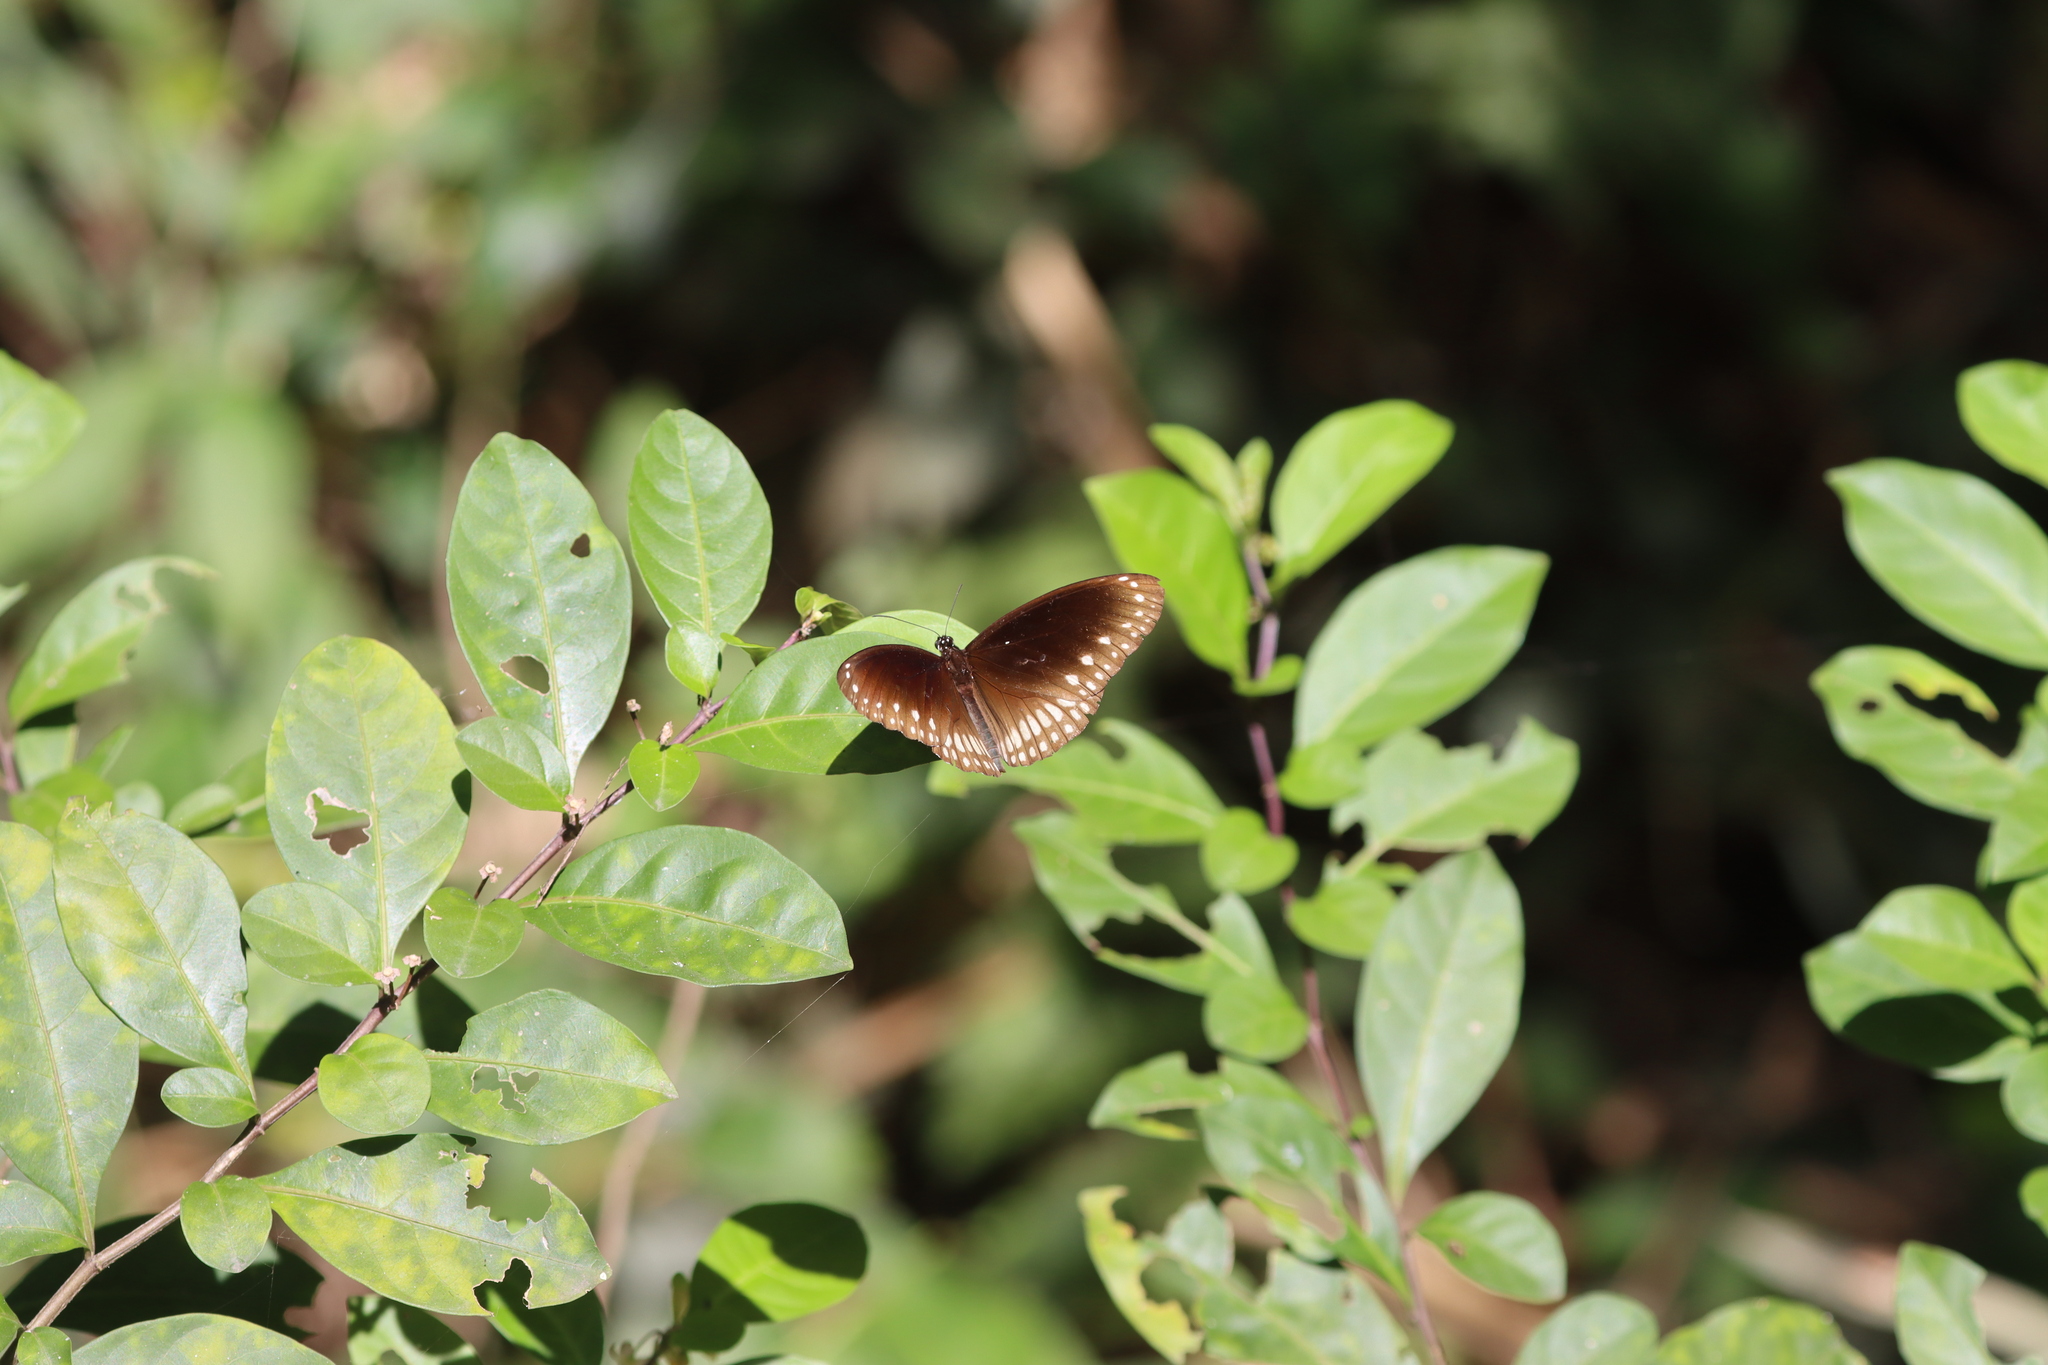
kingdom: Animalia
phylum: Arthropoda
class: Insecta
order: Lepidoptera
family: Nymphalidae
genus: Euploea
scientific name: Euploea core
